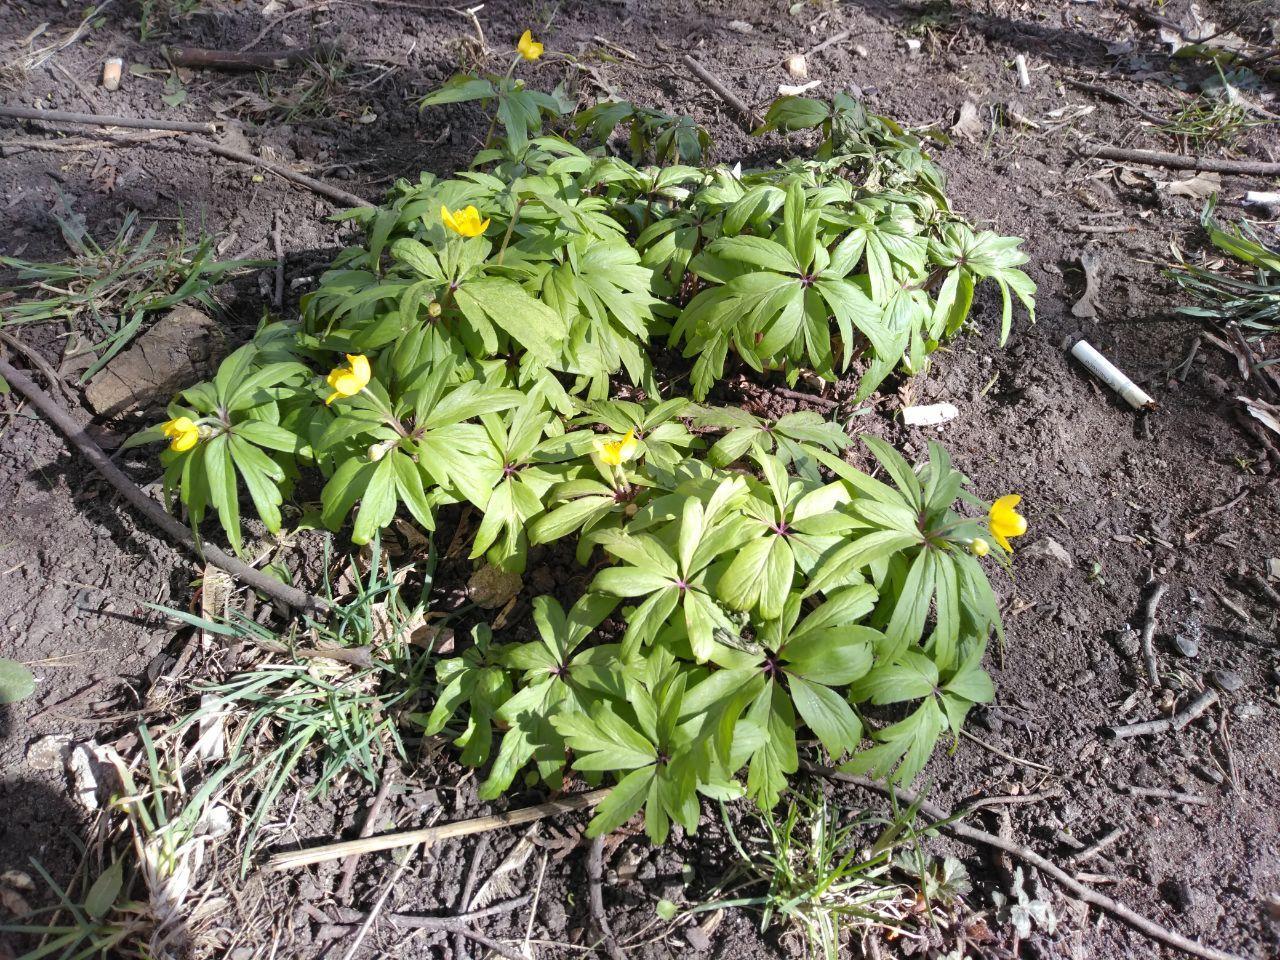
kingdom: Plantae
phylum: Tracheophyta
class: Magnoliopsida
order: Ranunculales
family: Ranunculaceae
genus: Anemone
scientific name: Anemone ranunculoides
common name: Yellow anemone
